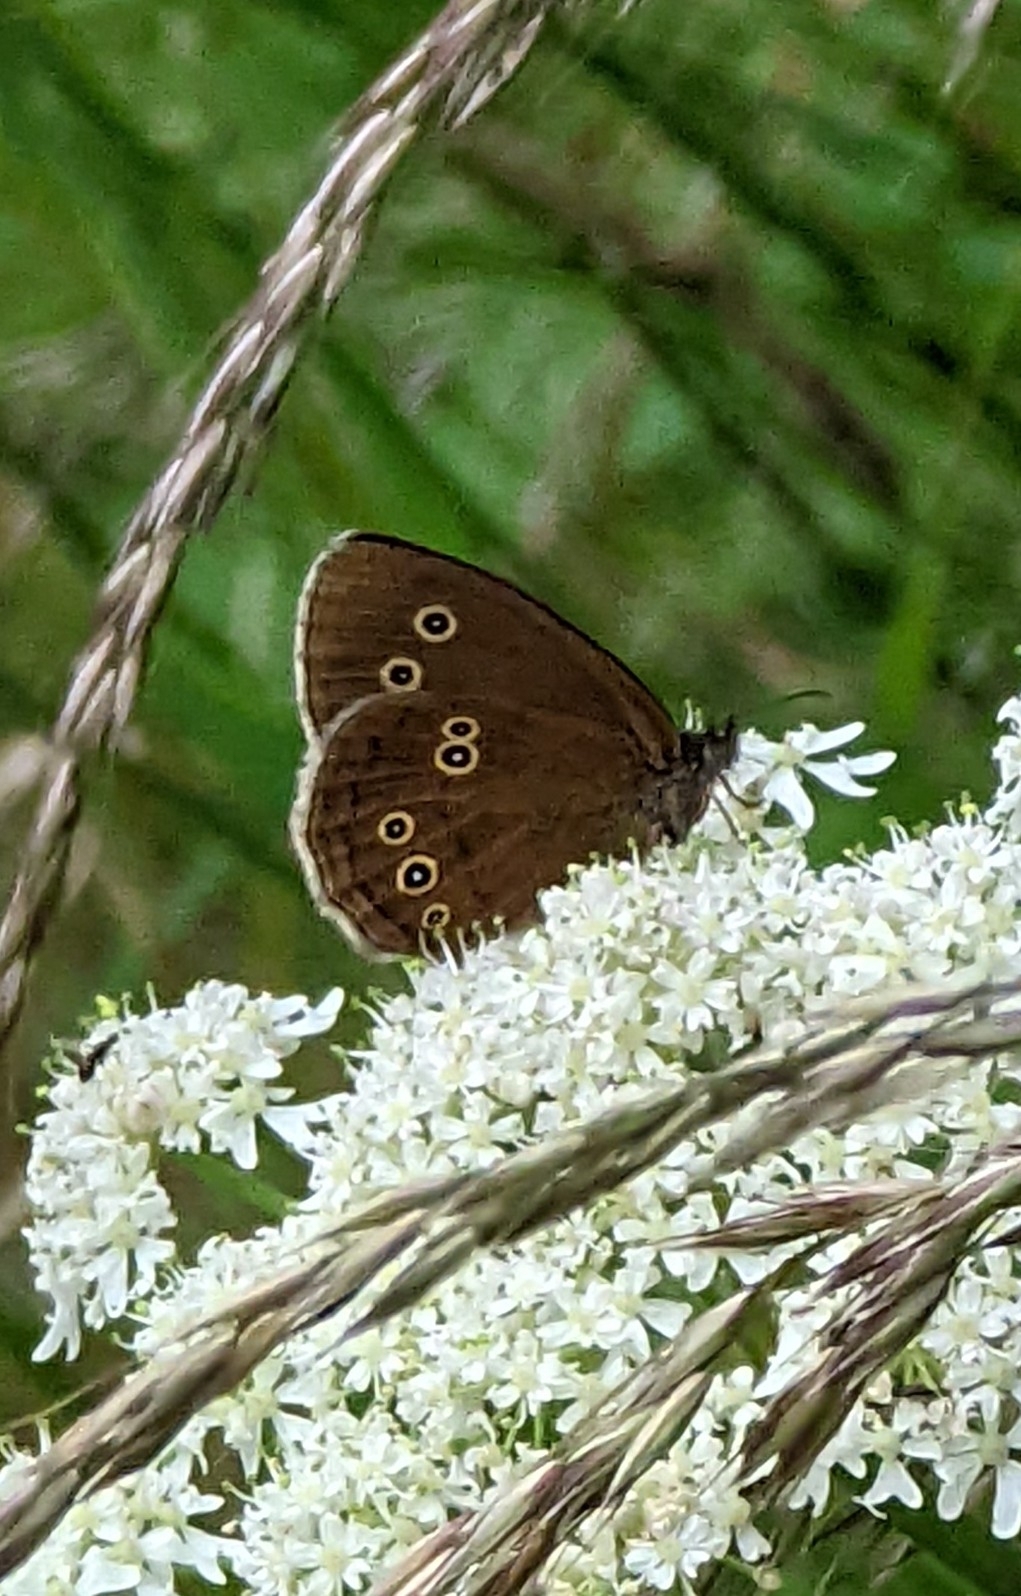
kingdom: Animalia
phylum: Arthropoda
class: Insecta
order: Lepidoptera
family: Nymphalidae
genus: Aphantopus
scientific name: Aphantopus hyperantus
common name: Ringlet
